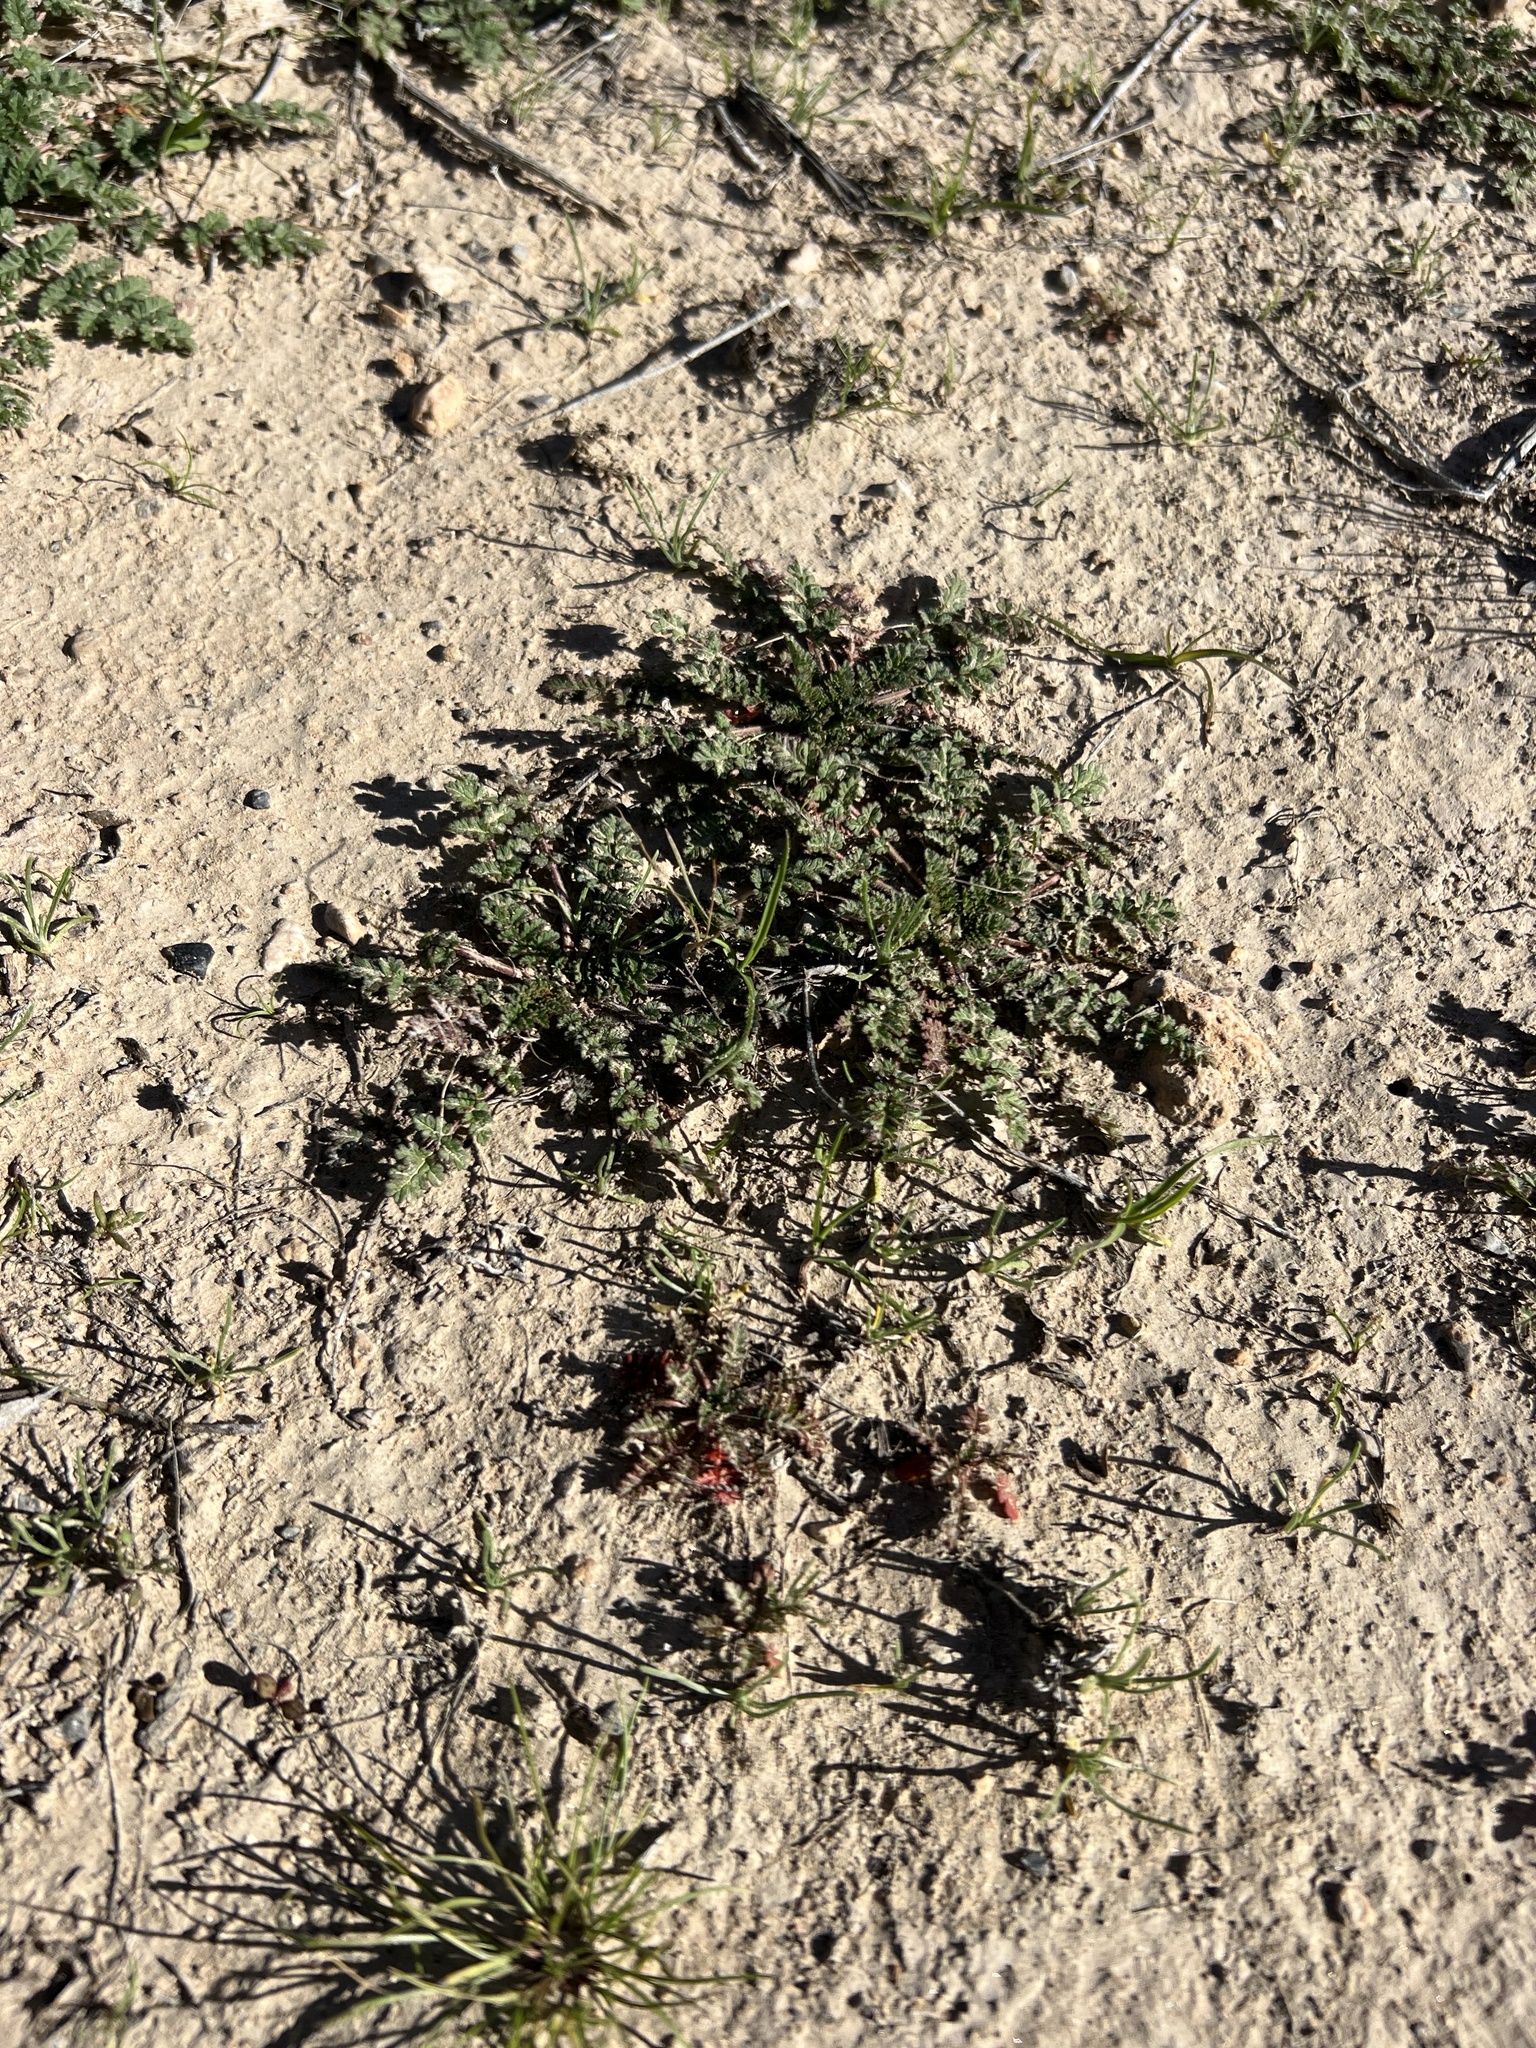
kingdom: Plantae
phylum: Tracheophyta
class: Magnoliopsida
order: Geraniales
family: Geraniaceae
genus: Erodium
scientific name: Erodium cicutarium
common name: Common stork's-bill
